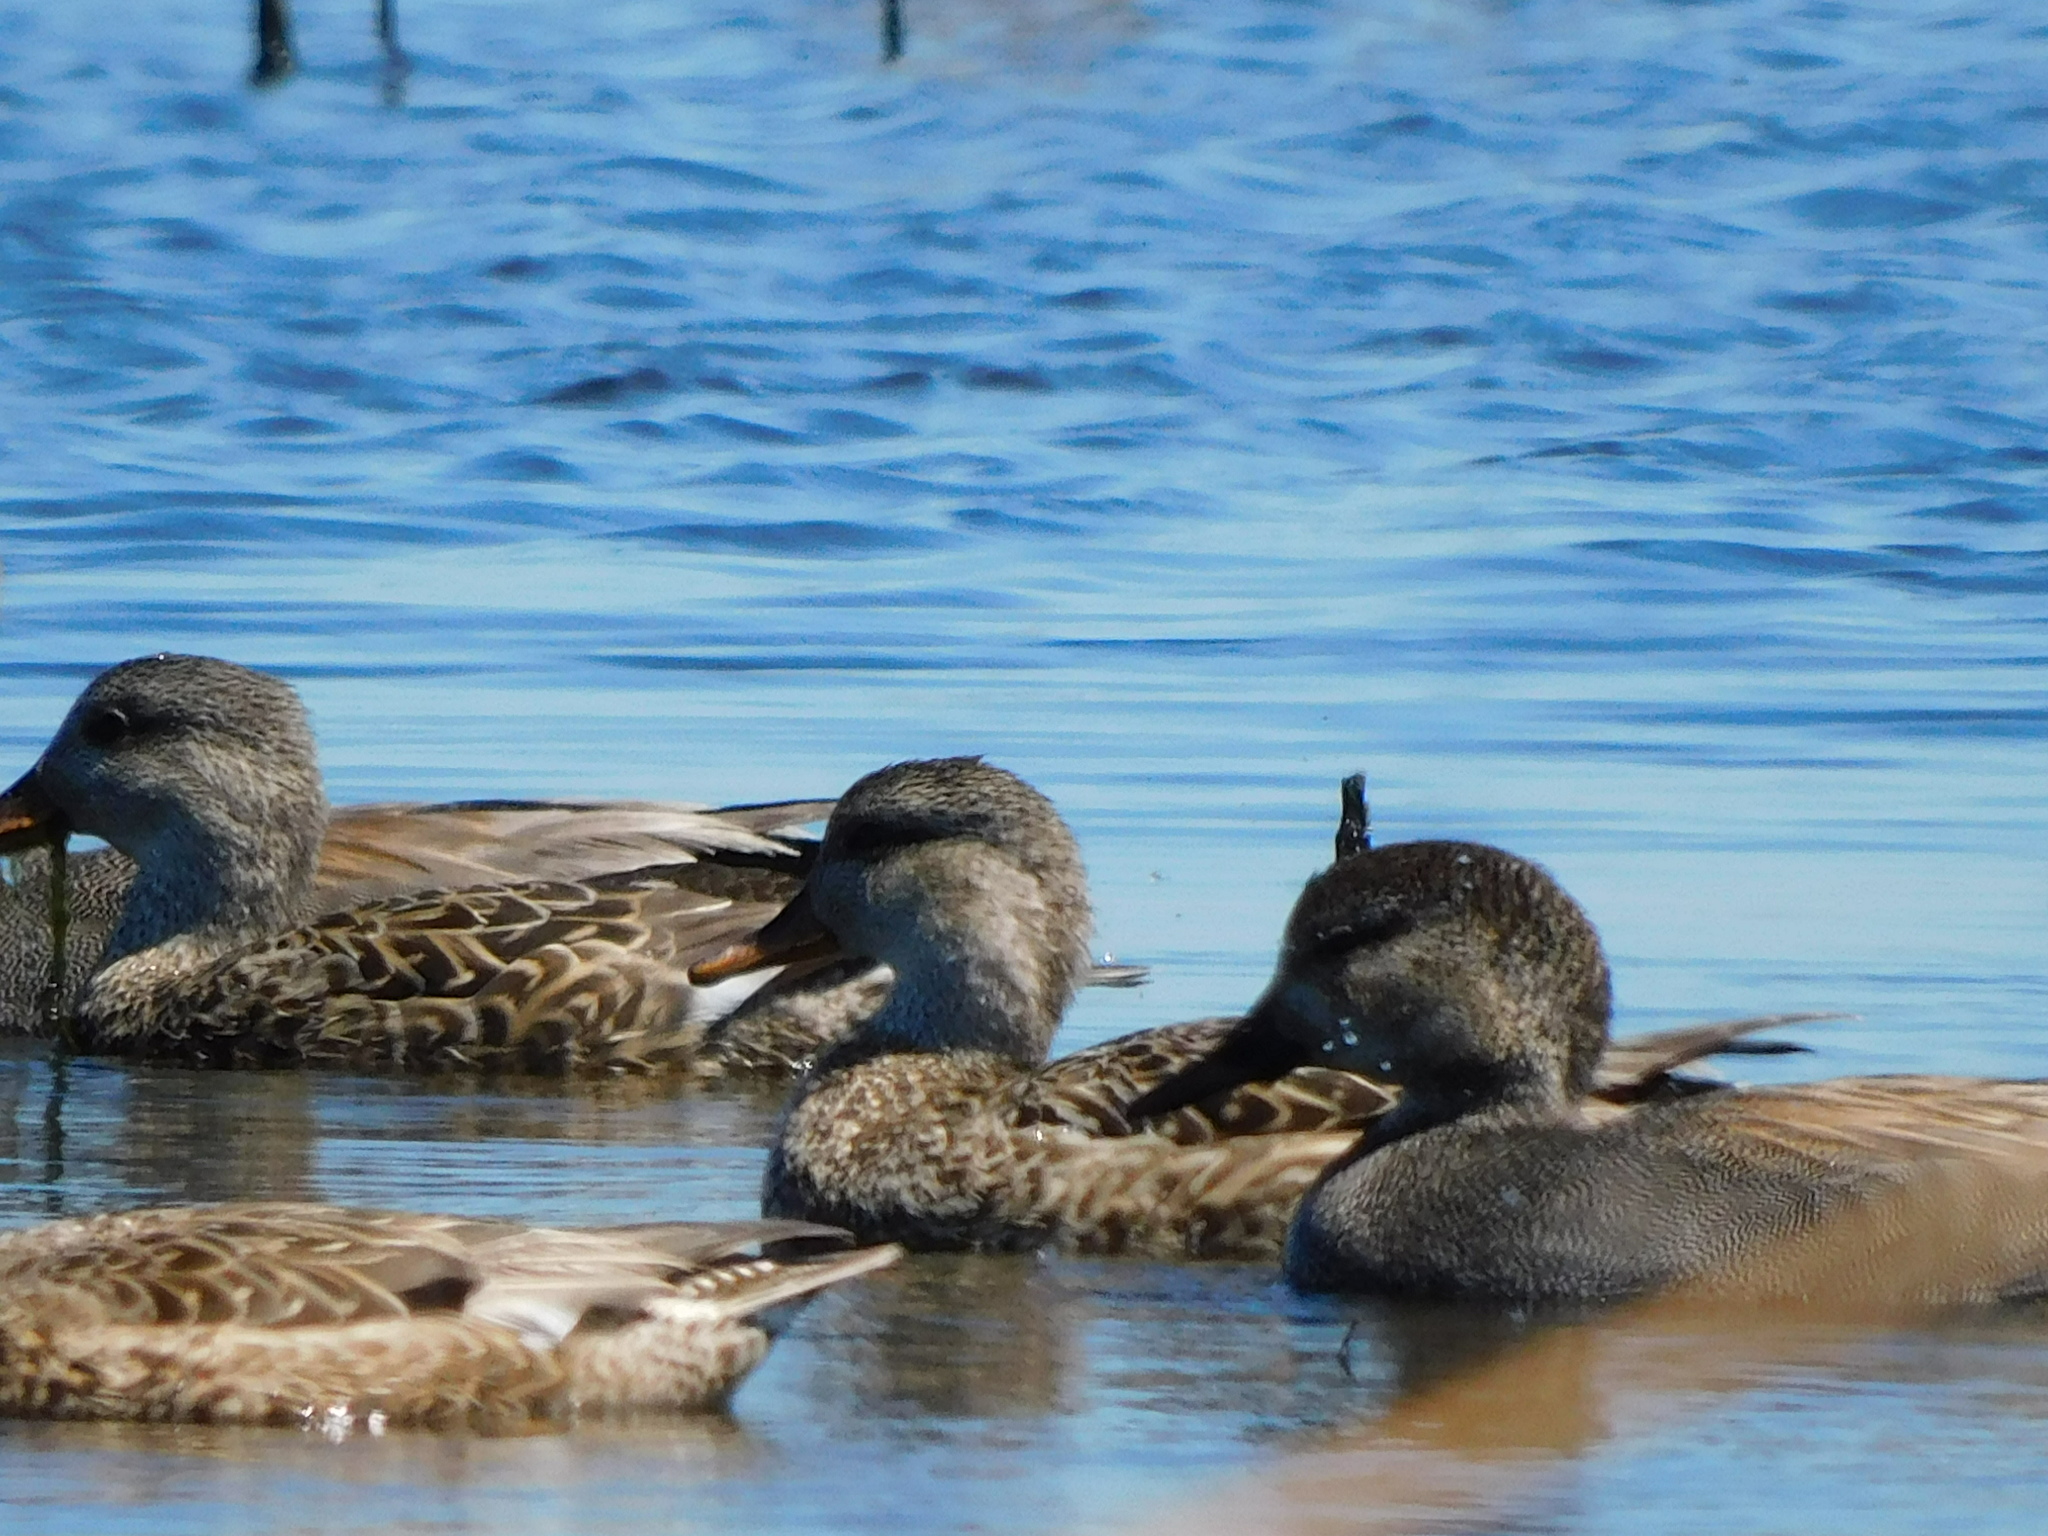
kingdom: Animalia
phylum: Chordata
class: Aves
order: Anseriformes
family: Anatidae
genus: Mareca
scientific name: Mareca strepera
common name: Gadwall
